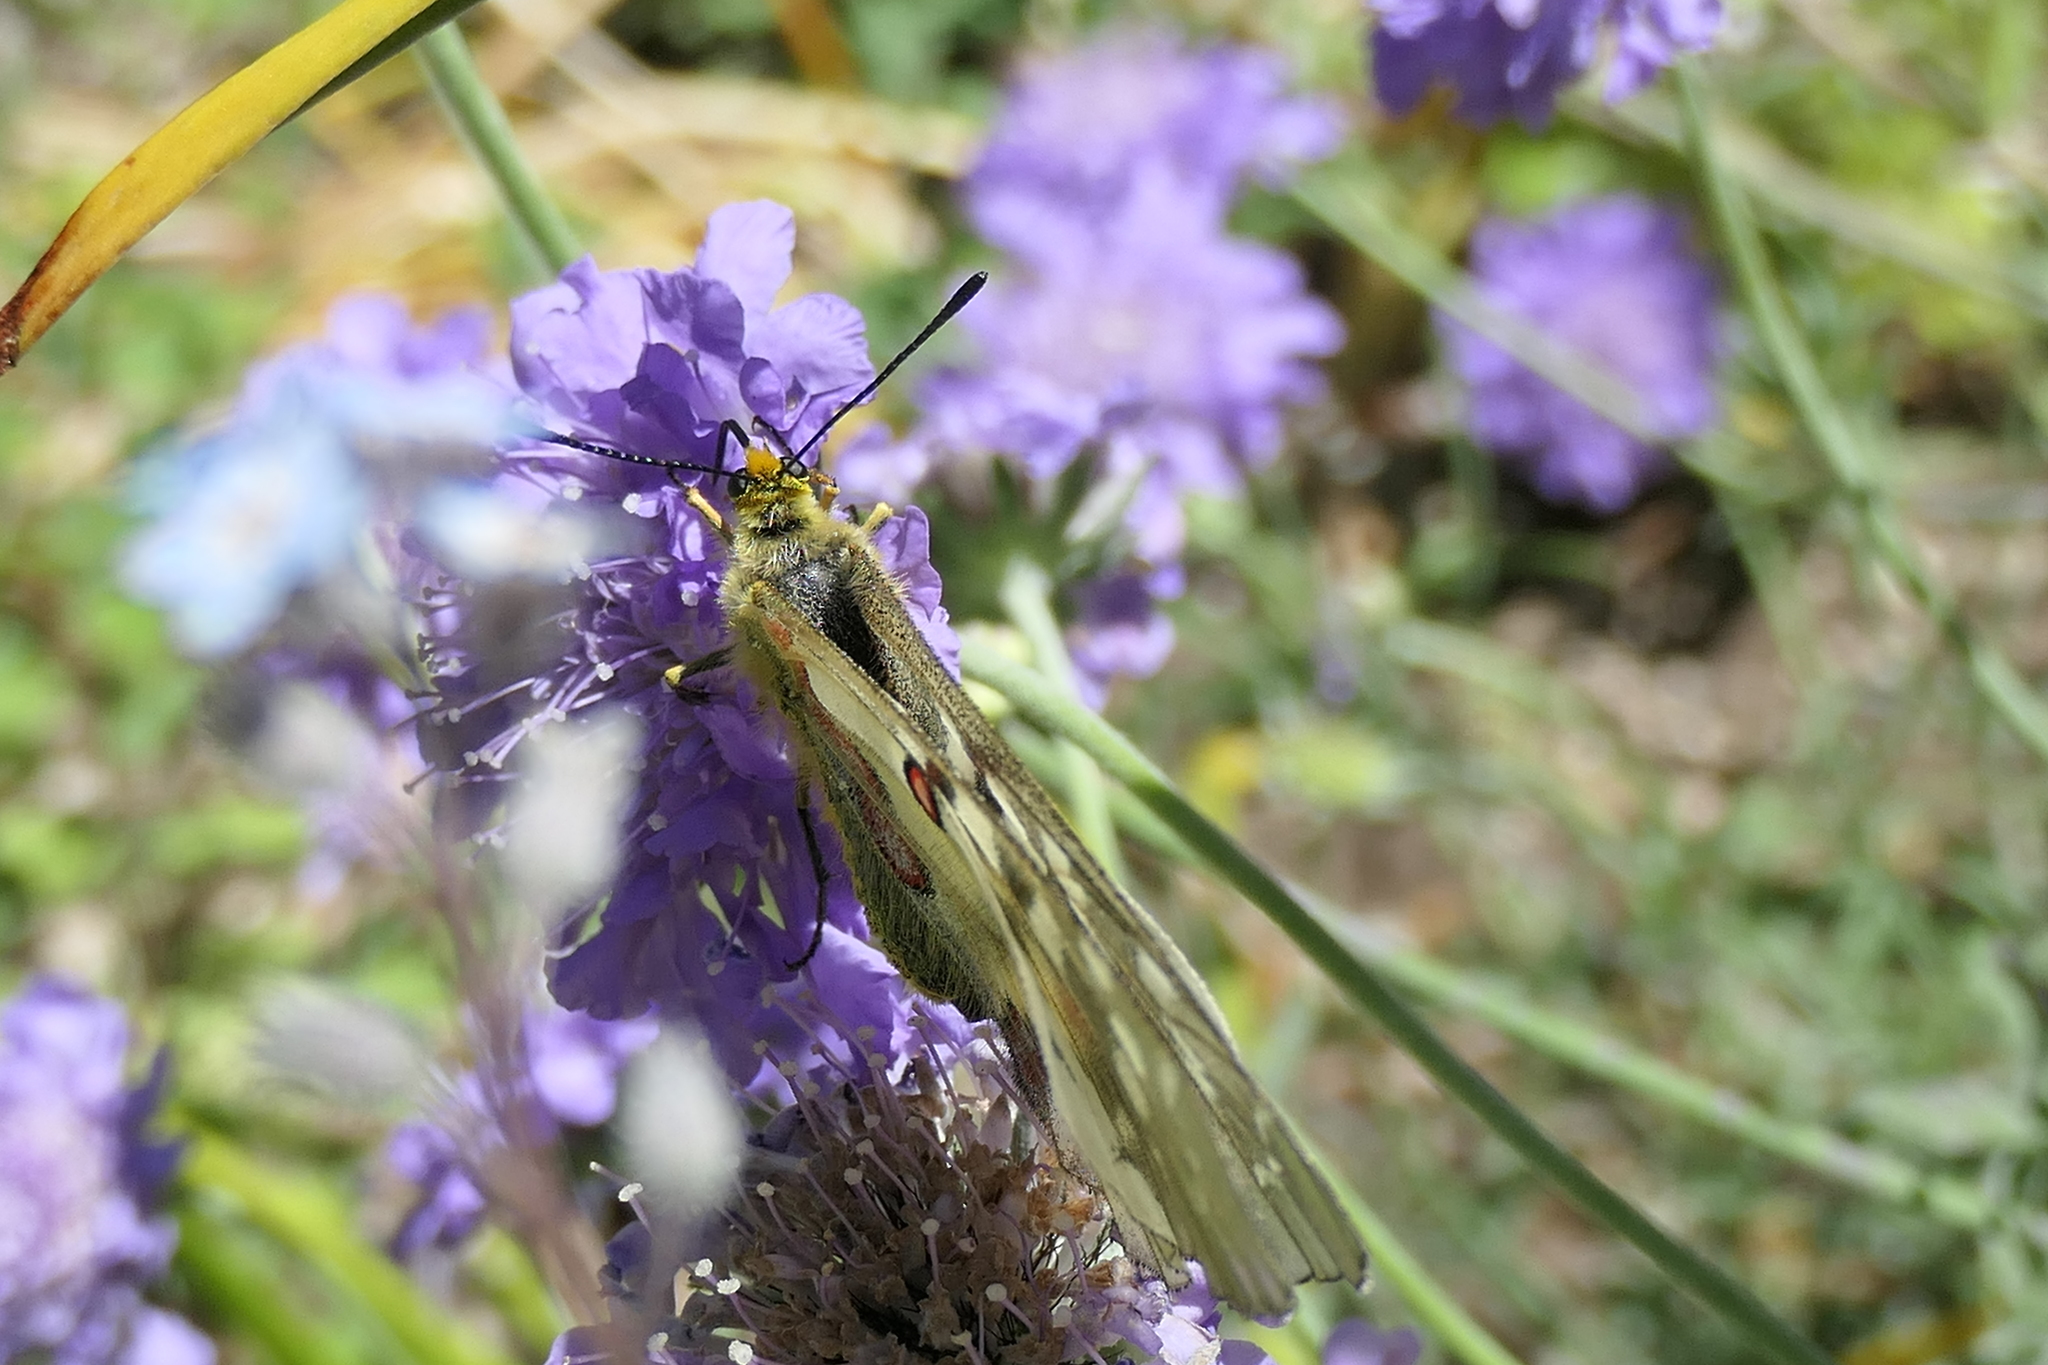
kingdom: Animalia
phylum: Arthropoda
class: Insecta
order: Lepidoptera
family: Papilionidae
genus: Parnassius
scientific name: Parnassius clodius
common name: American apollo
